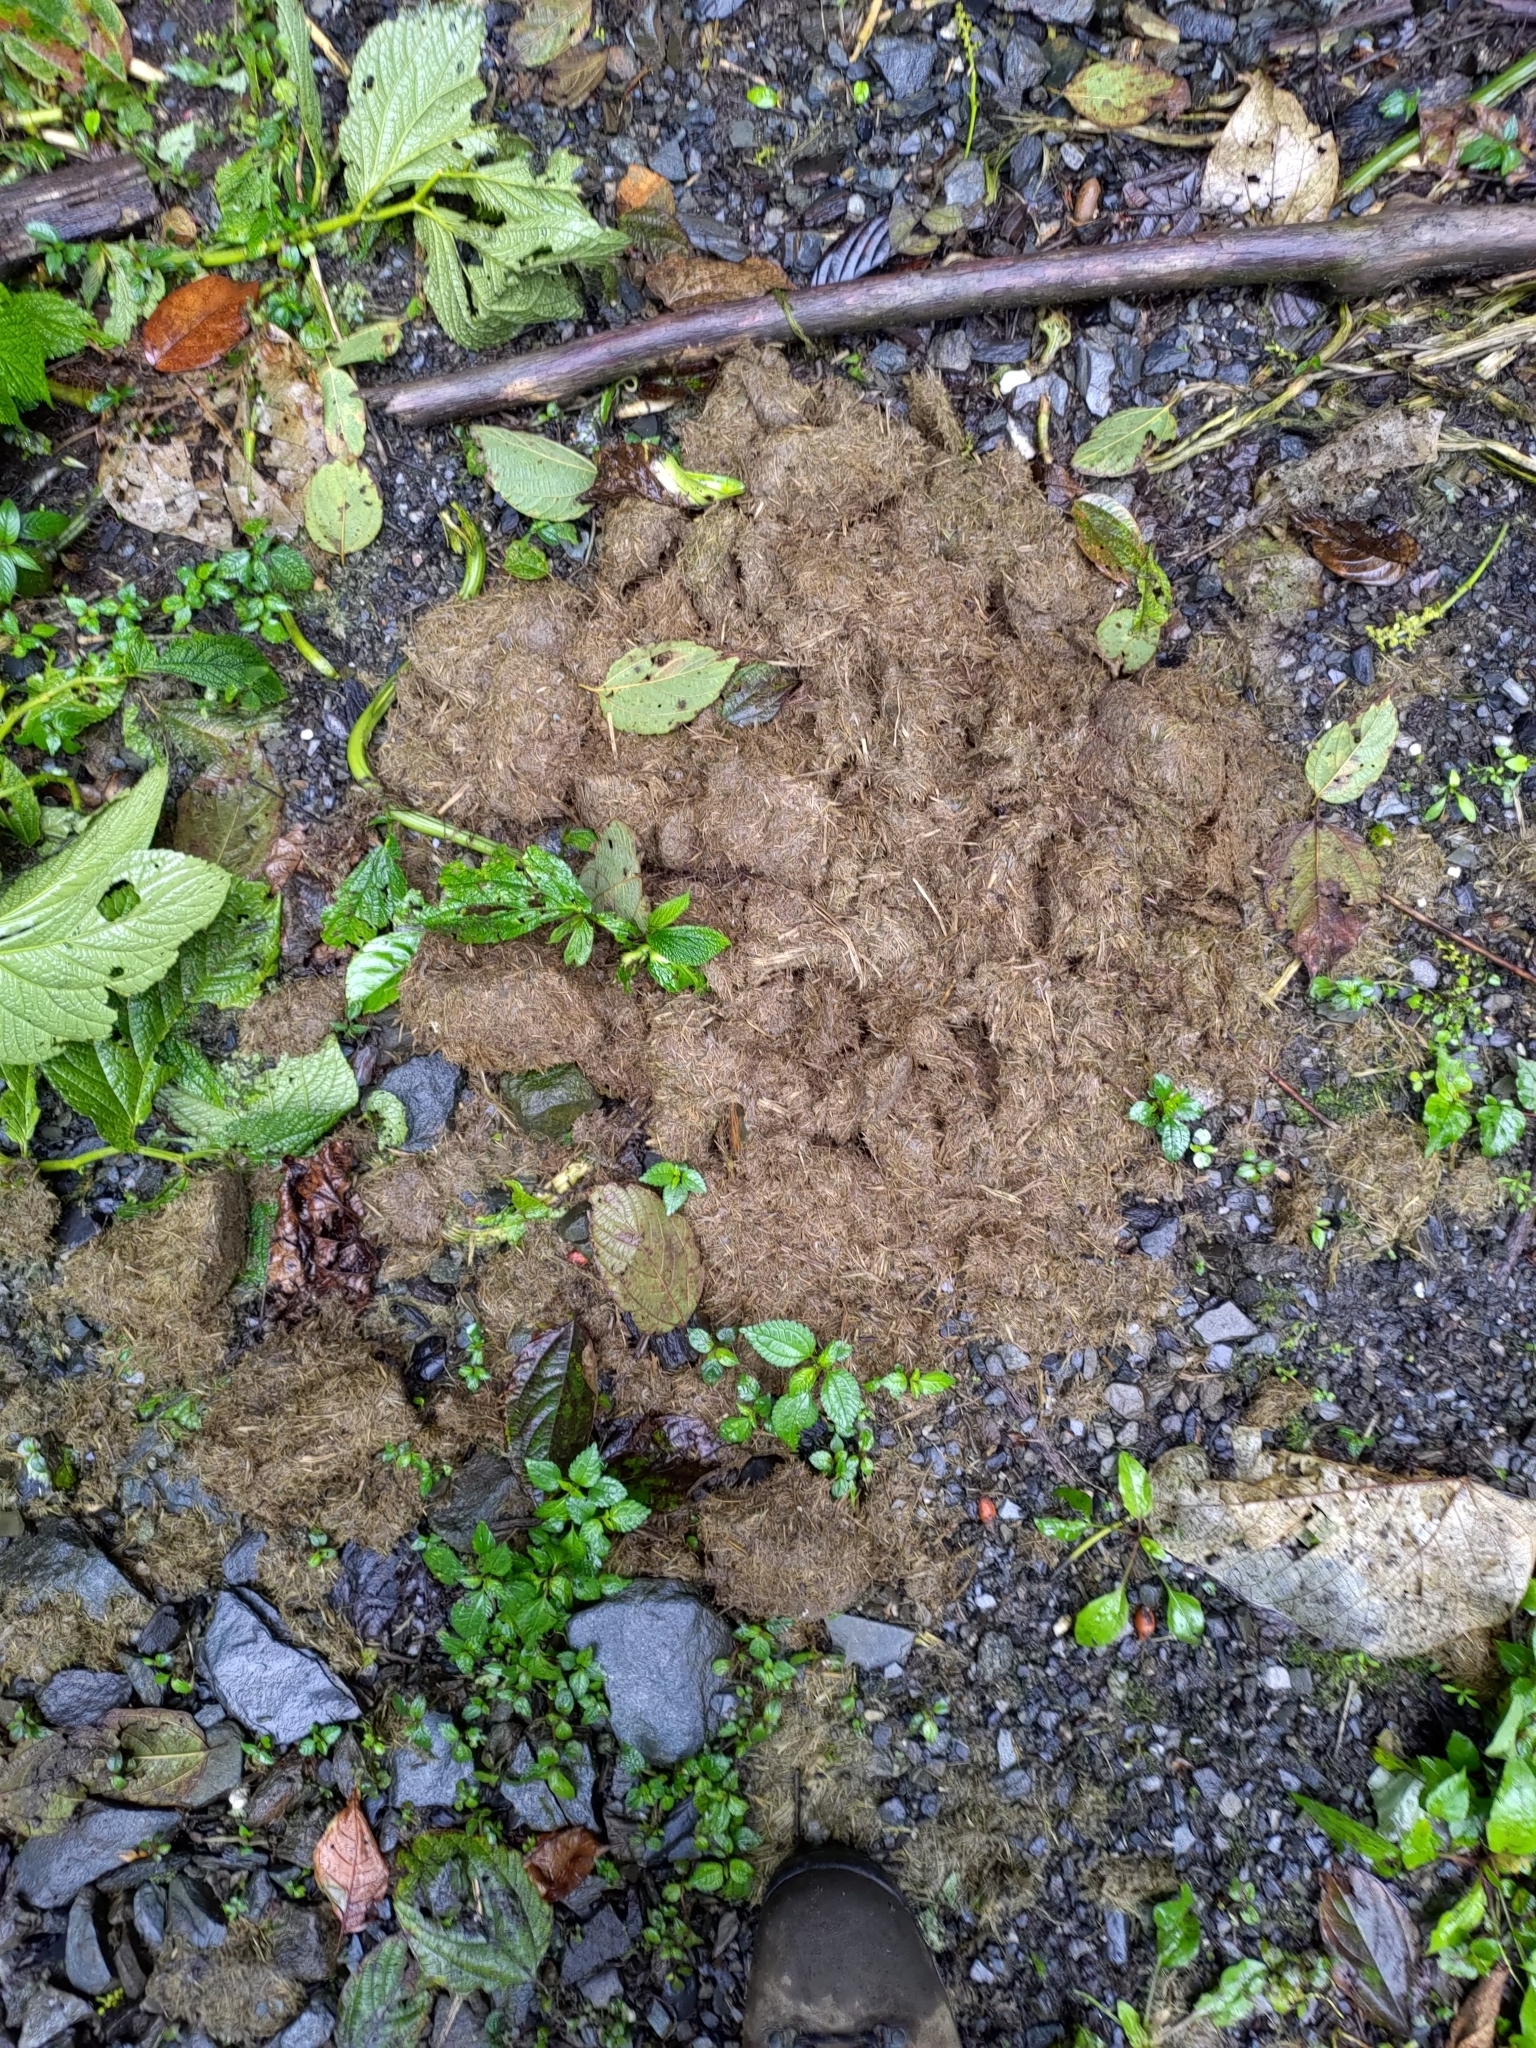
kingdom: Animalia
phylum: Chordata
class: Mammalia
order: Proboscidea
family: Elephantidae
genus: Elephas
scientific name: Elephas maximus
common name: Asian elephant
